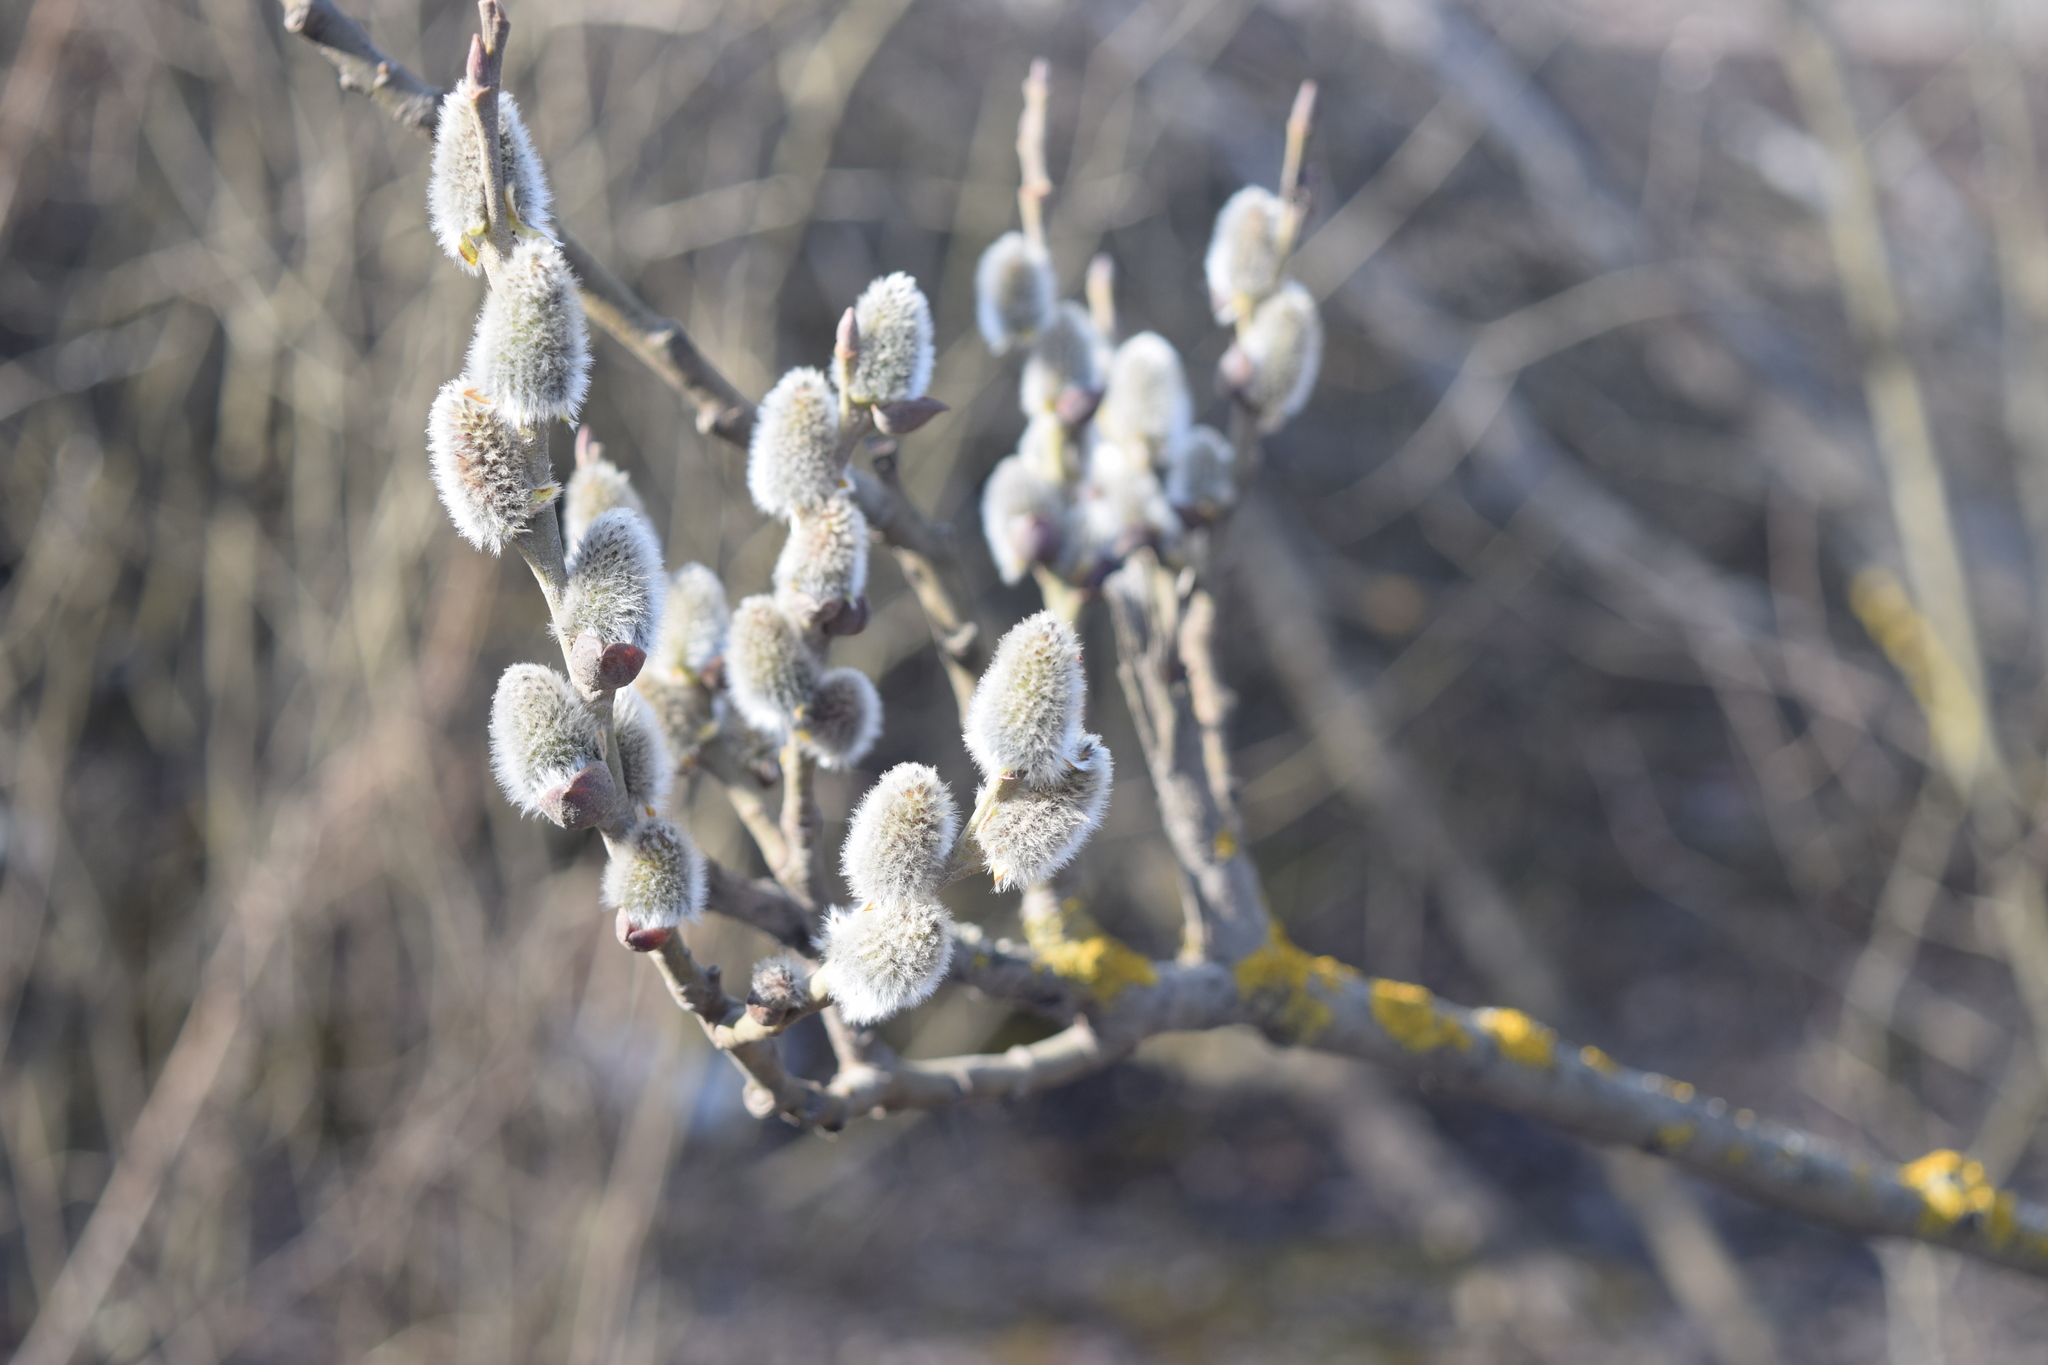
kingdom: Plantae
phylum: Tracheophyta
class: Magnoliopsida
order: Malpighiales
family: Salicaceae
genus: Salix
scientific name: Salix caprea
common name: Goat willow
